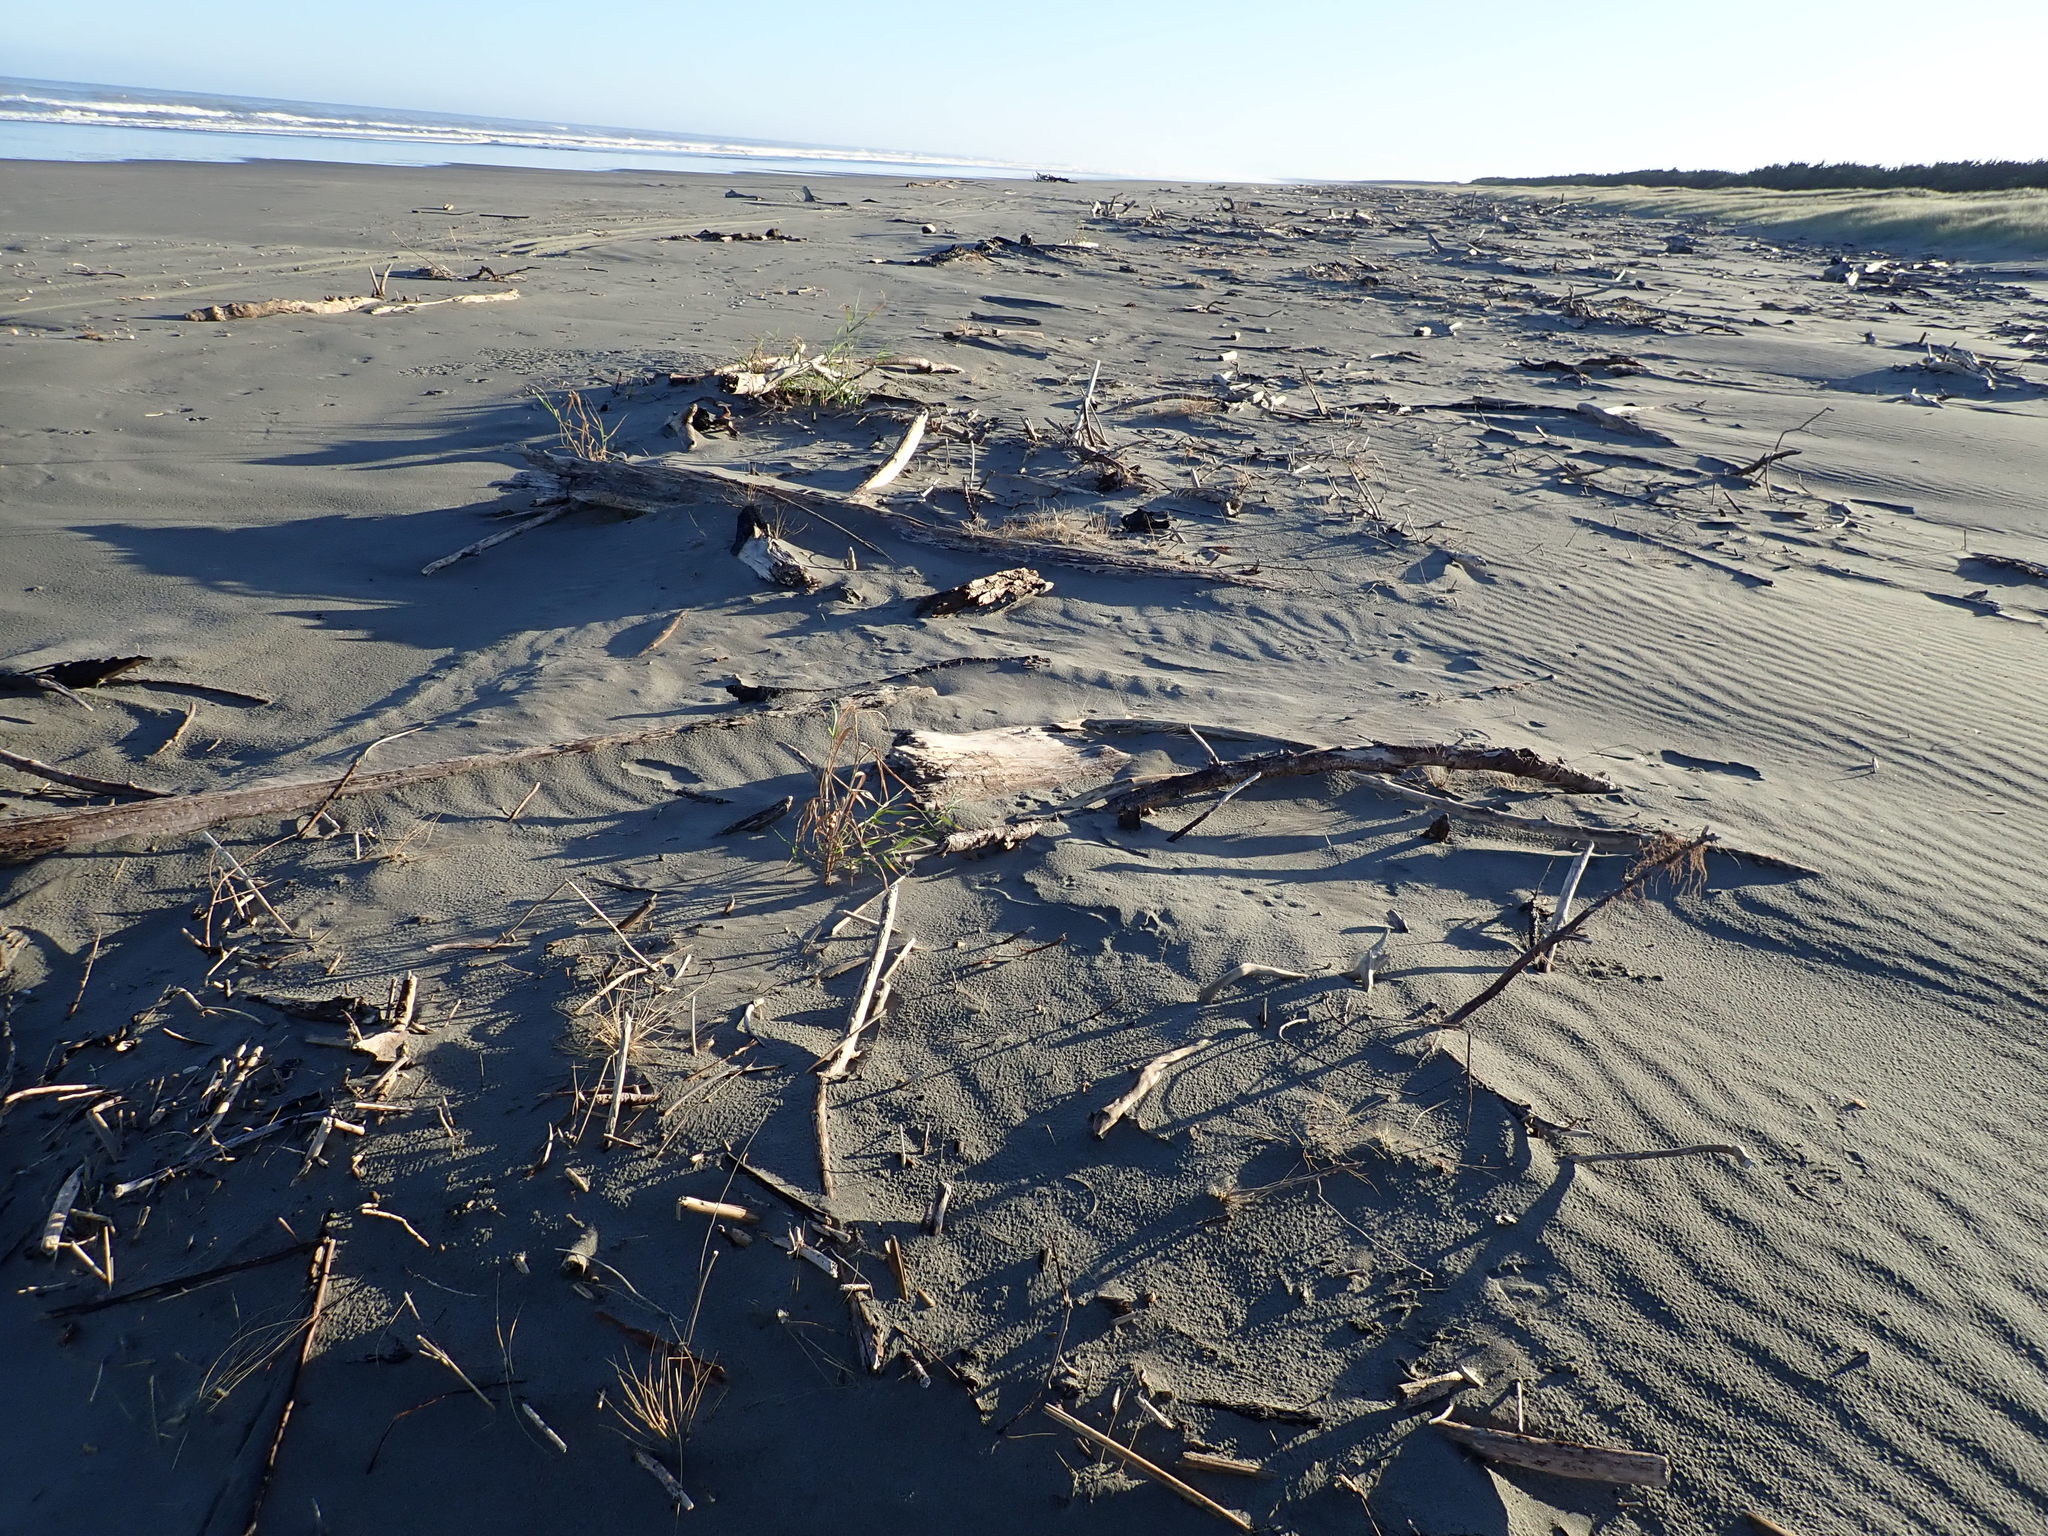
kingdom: Plantae
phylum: Tracheophyta
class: Liliopsida
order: Poales
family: Poaceae
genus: Phragmites
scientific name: Phragmites karka
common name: Tropical reed
